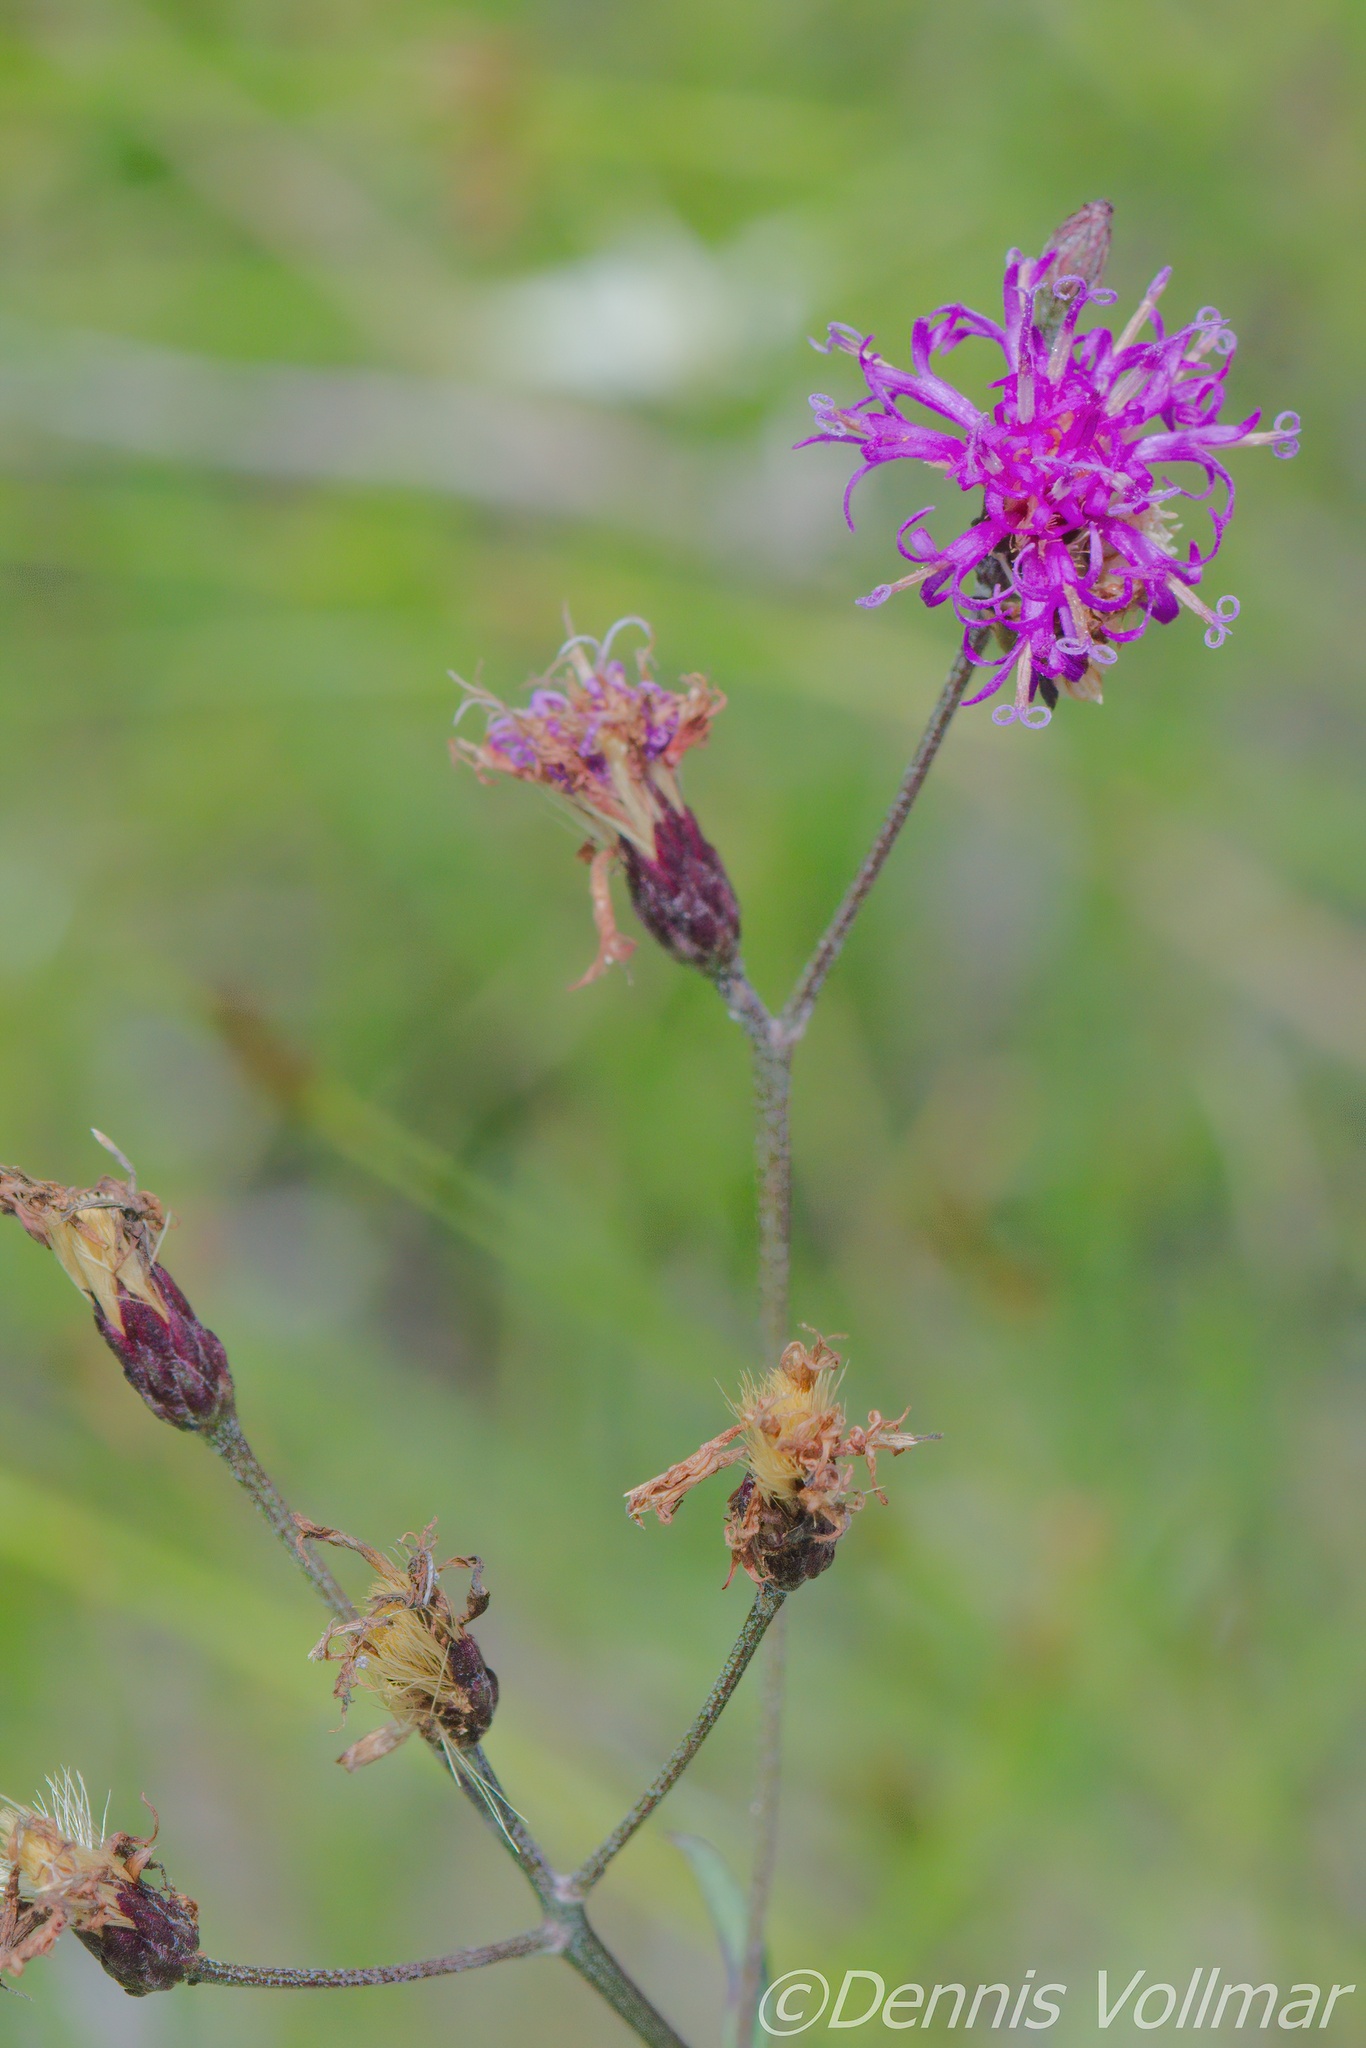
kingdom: Plantae
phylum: Tracheophyta
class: Magnoliopsida
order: Asterales
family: Asteraceae
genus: Vernonia
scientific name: Vernonia blodgettii
